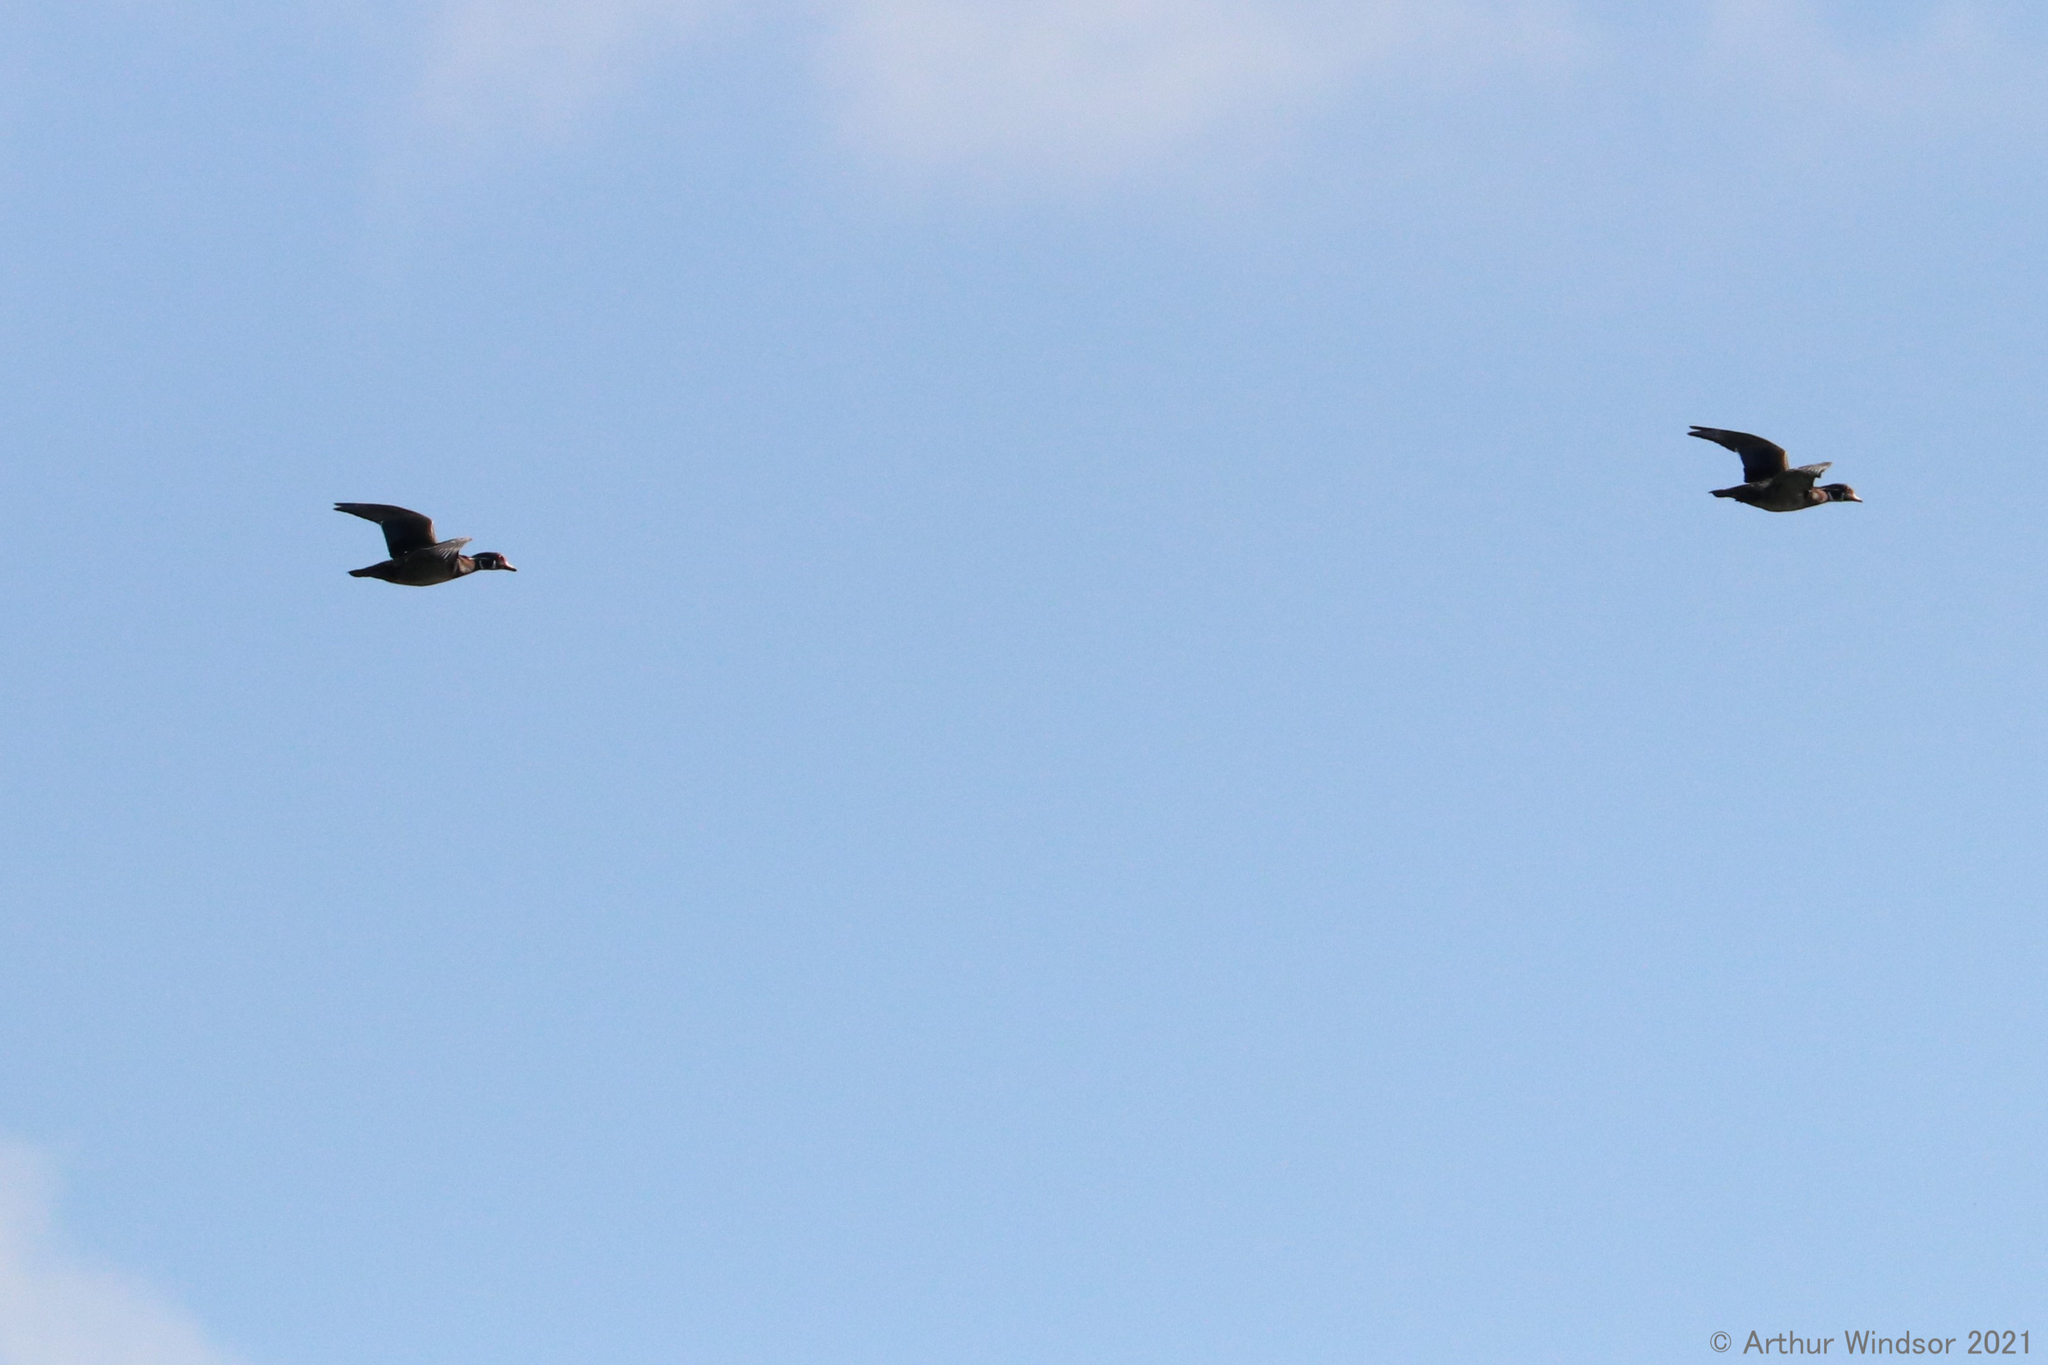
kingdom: Animalia
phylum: Chordata
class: Aves
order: Anseriformes
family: Anatidae
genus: Aix
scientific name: Aix sponsa
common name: Wood duck
